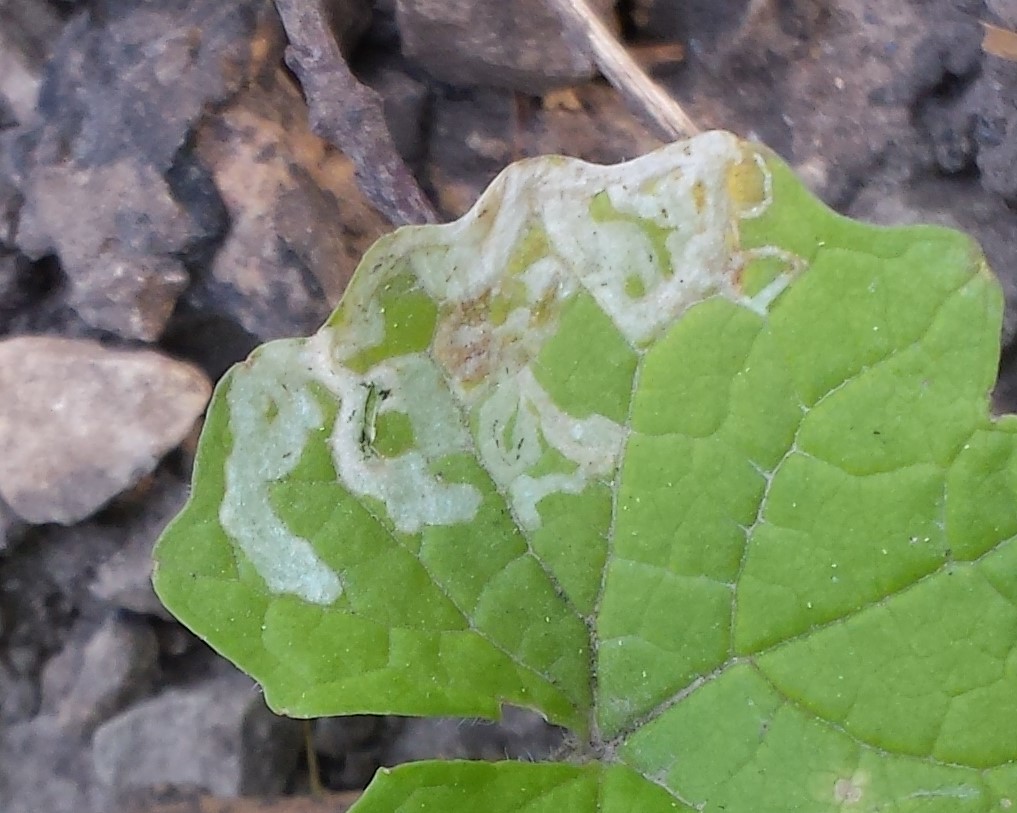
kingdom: Animalia
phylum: Arthropoda
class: Insecta
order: Diptera
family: Agromyzidae
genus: Liriomyza
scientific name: Liriomyza brassicae
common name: Serpentine leaf miner
